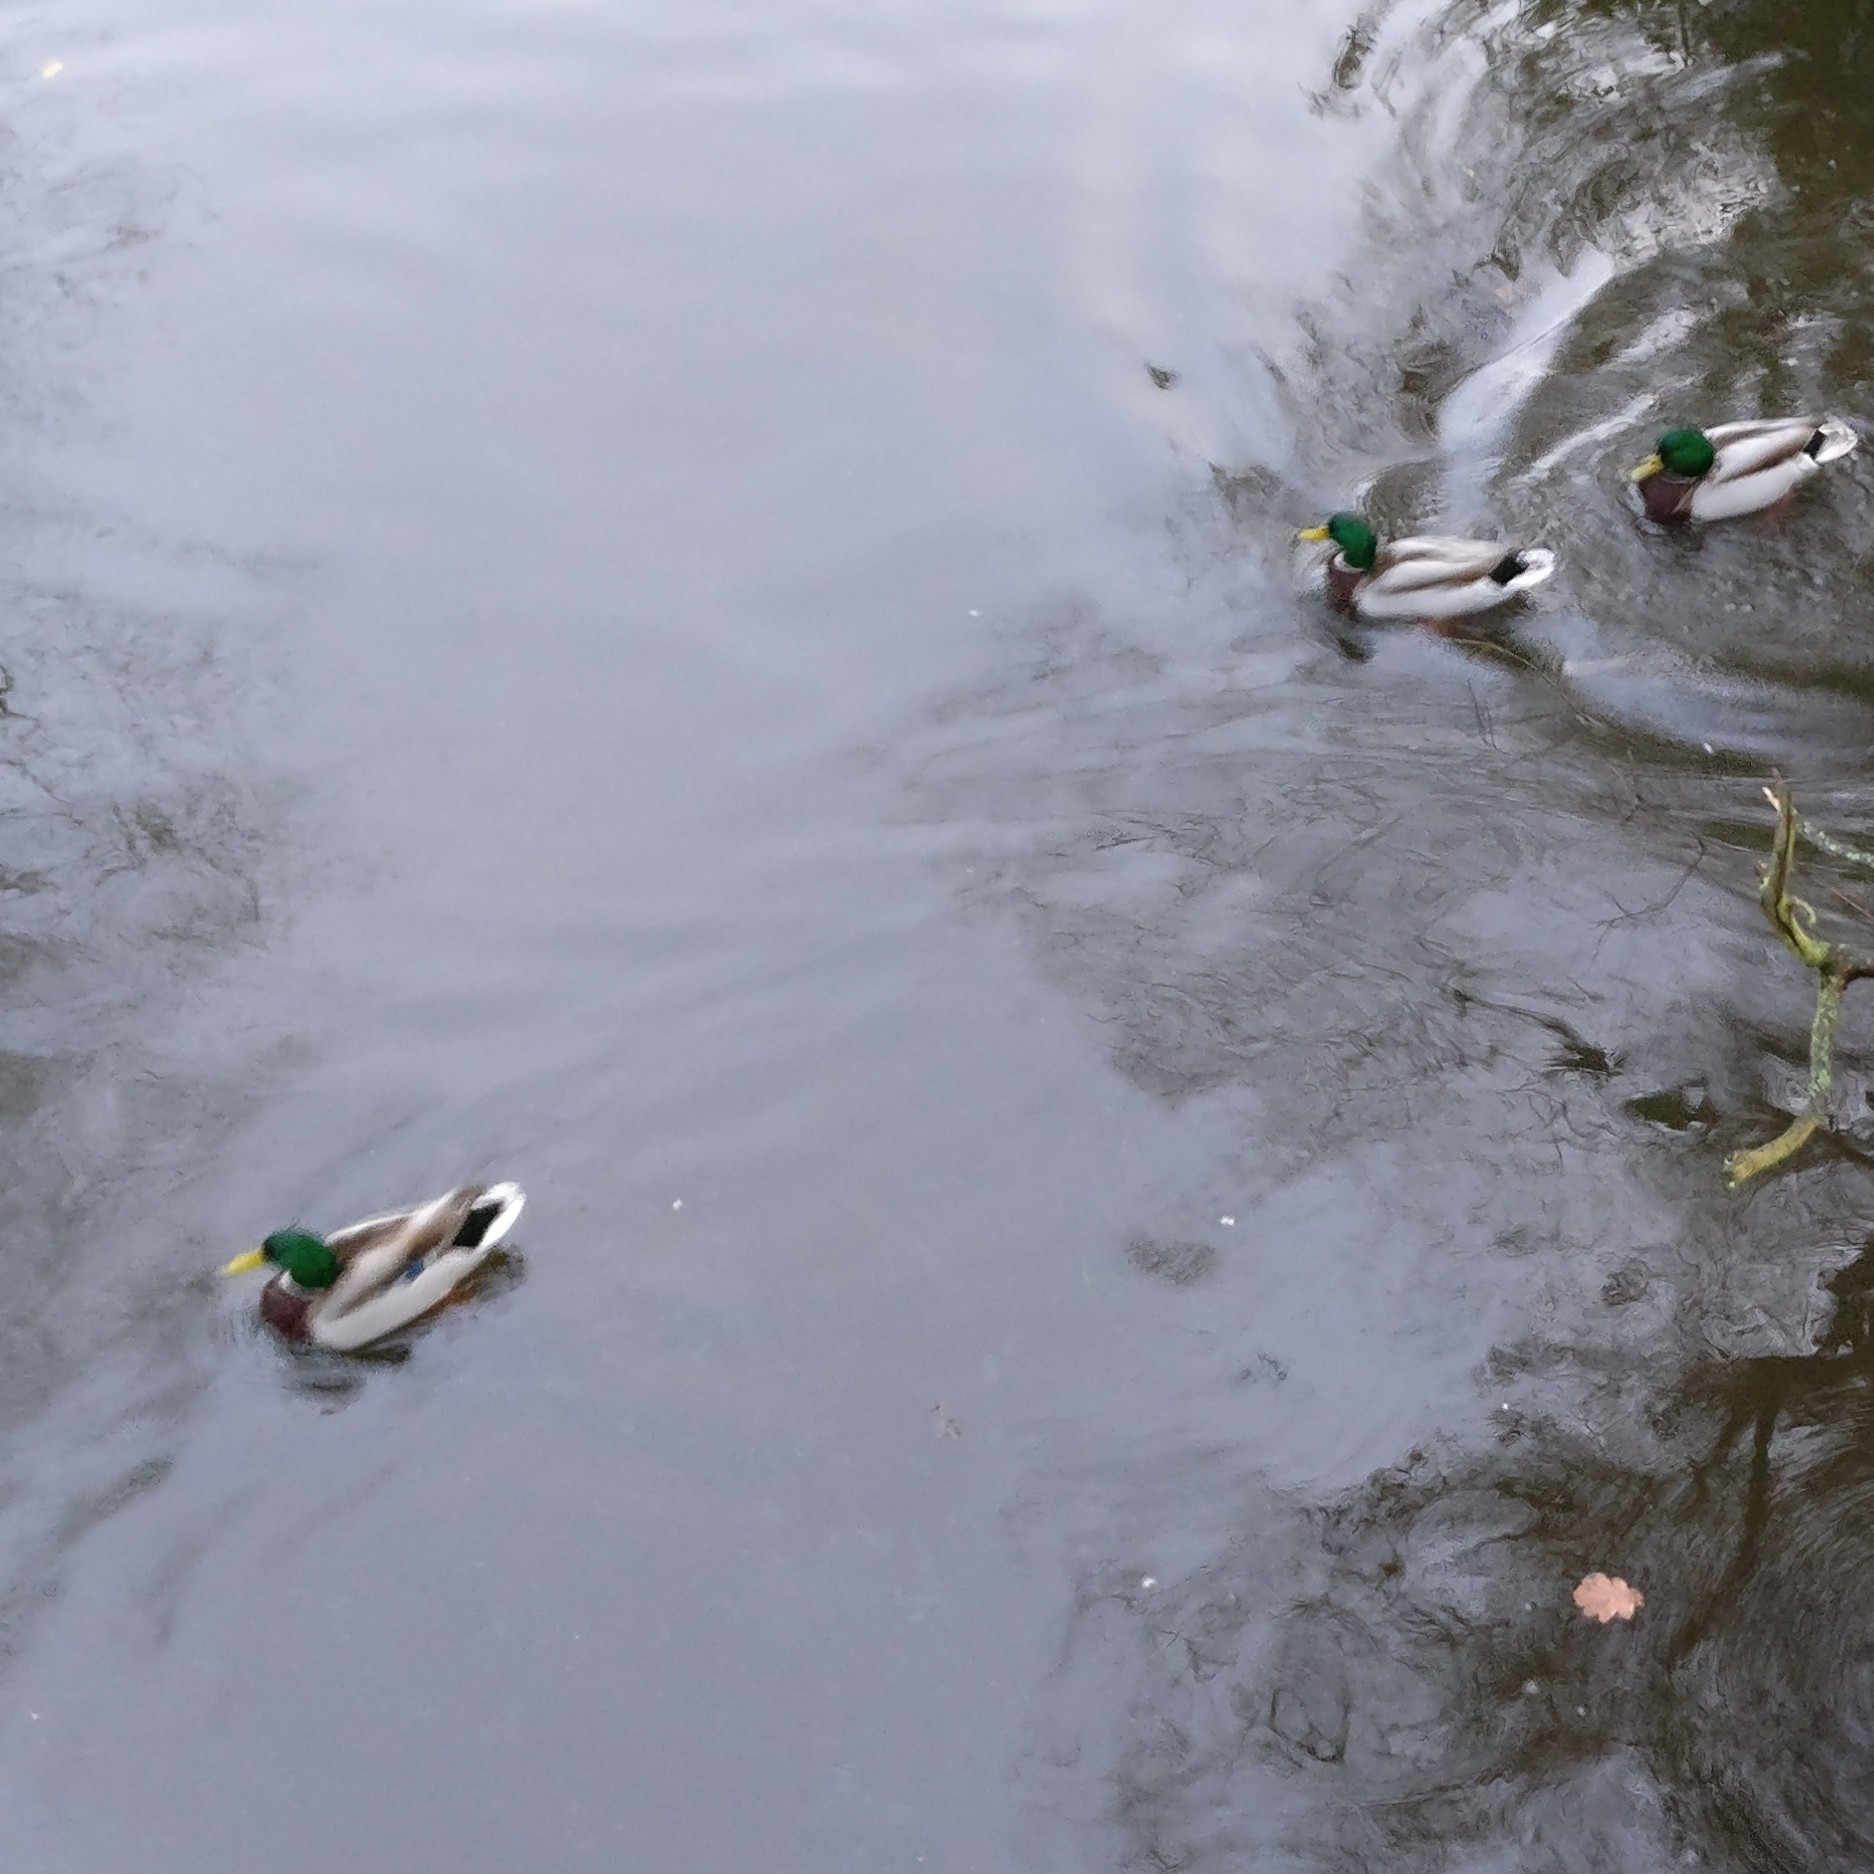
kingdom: Animalia
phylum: Chordata
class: Aves
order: Anseriformes
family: Anatidae
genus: Anas
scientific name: Anas platyrhynchos
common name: Mallard
